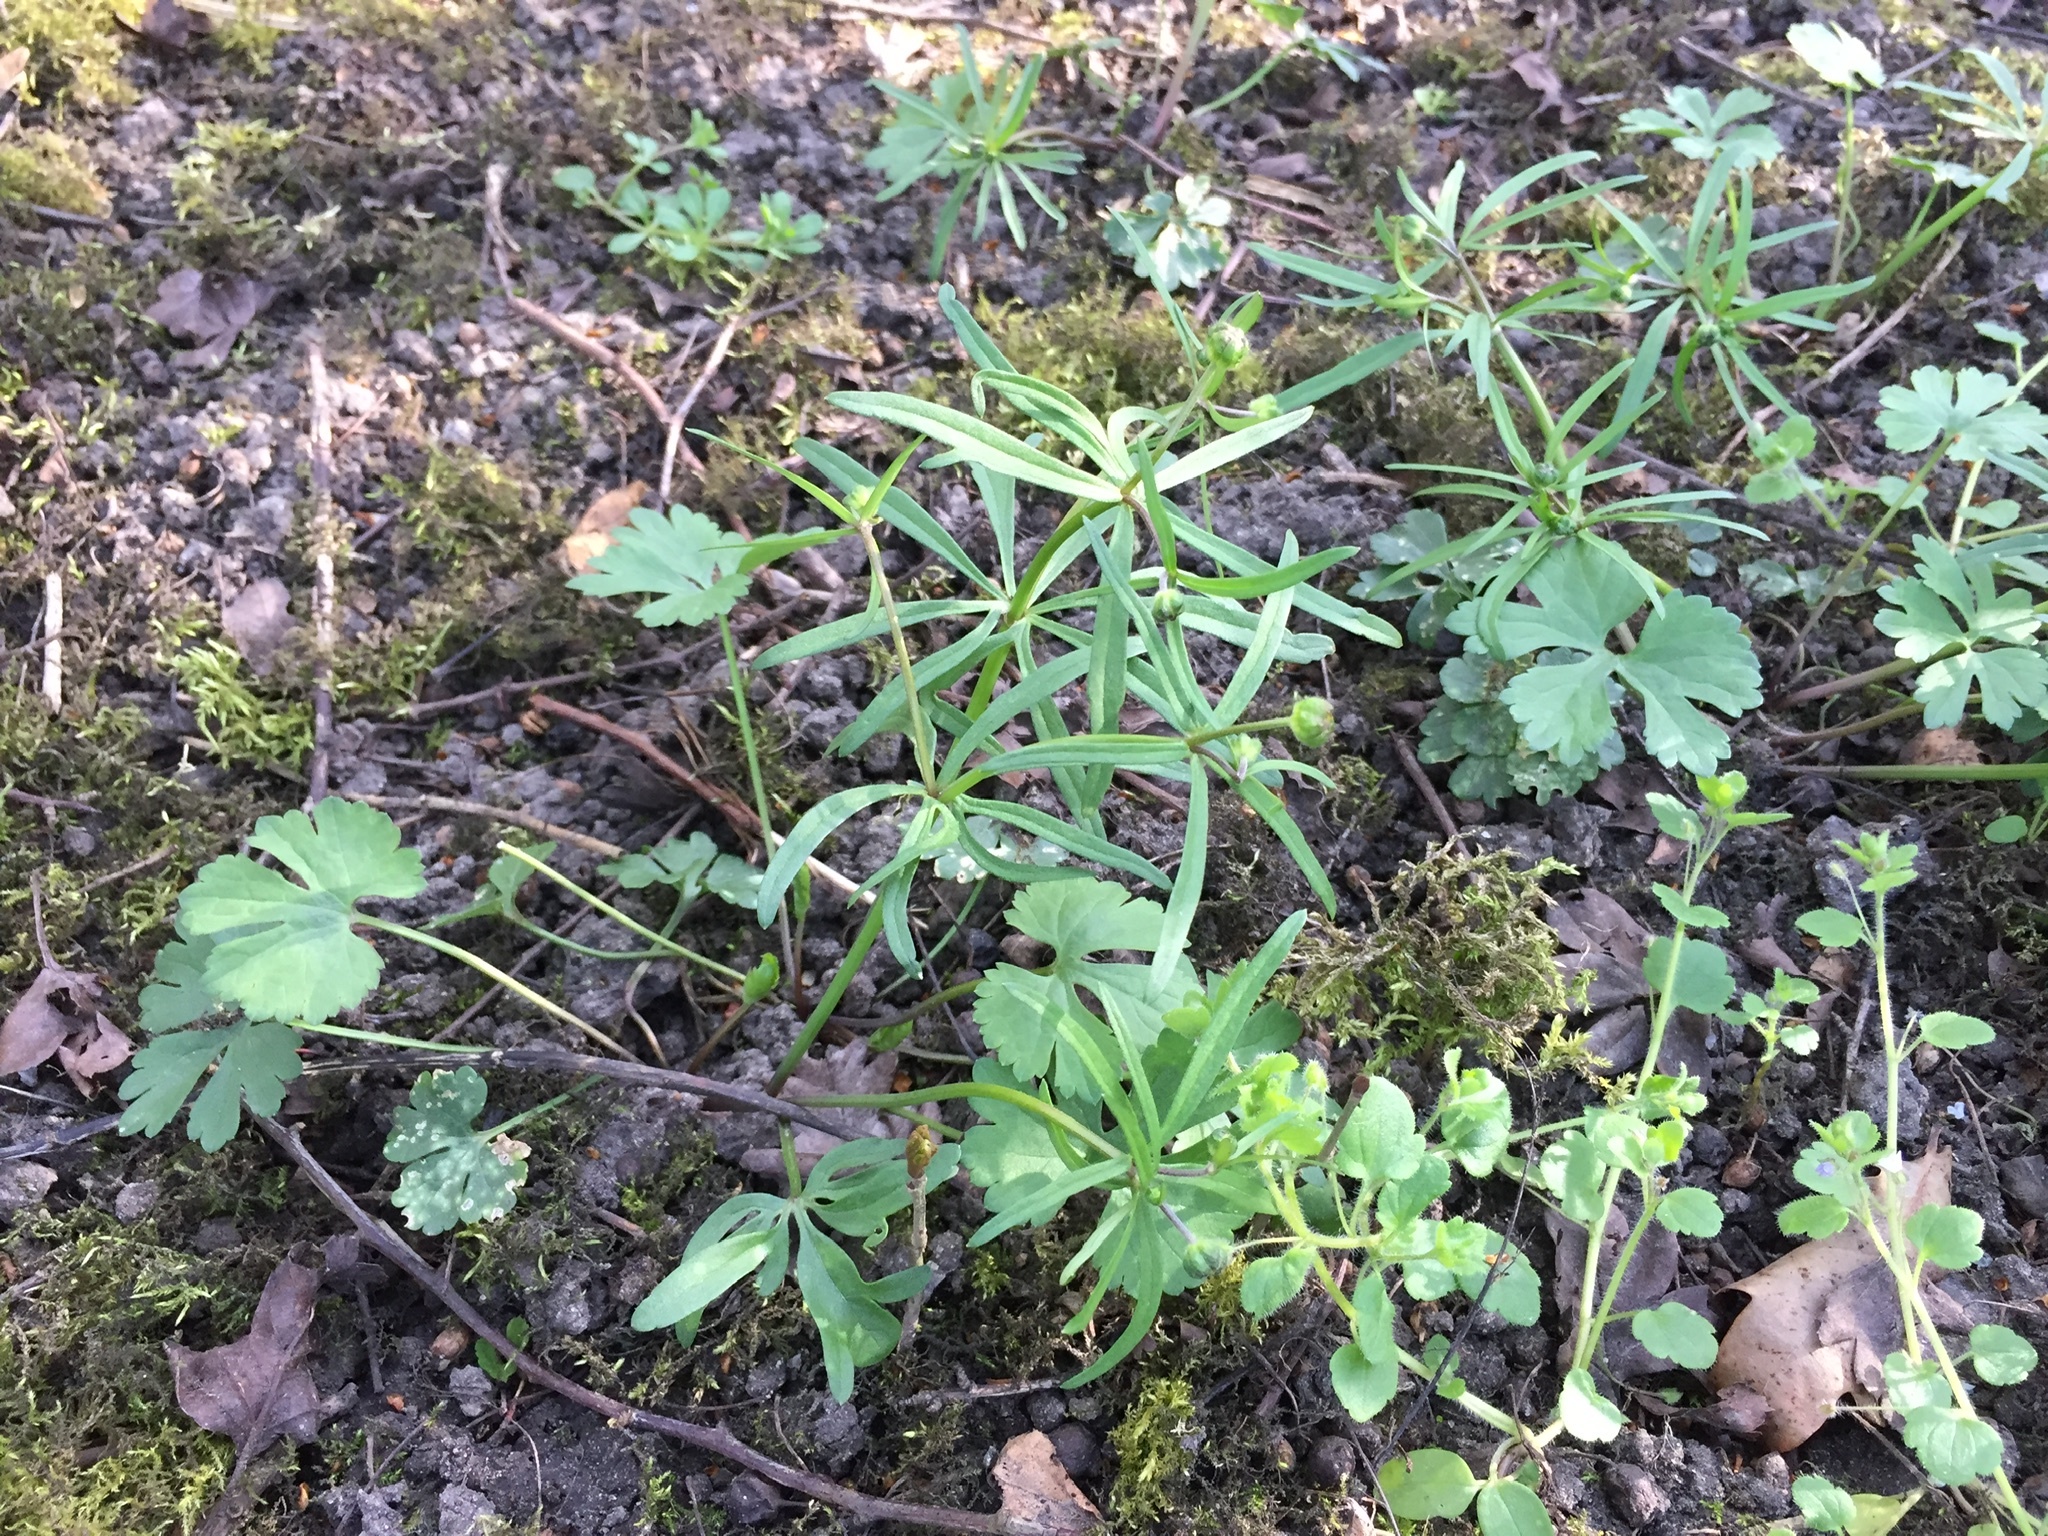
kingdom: Plantae
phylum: Tracheophyta
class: Magnoliopsida
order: Ranunculales
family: Ranunculaceae
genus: Ranunculus
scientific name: Ranunculus auricomus
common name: Goldilocks buttercup
